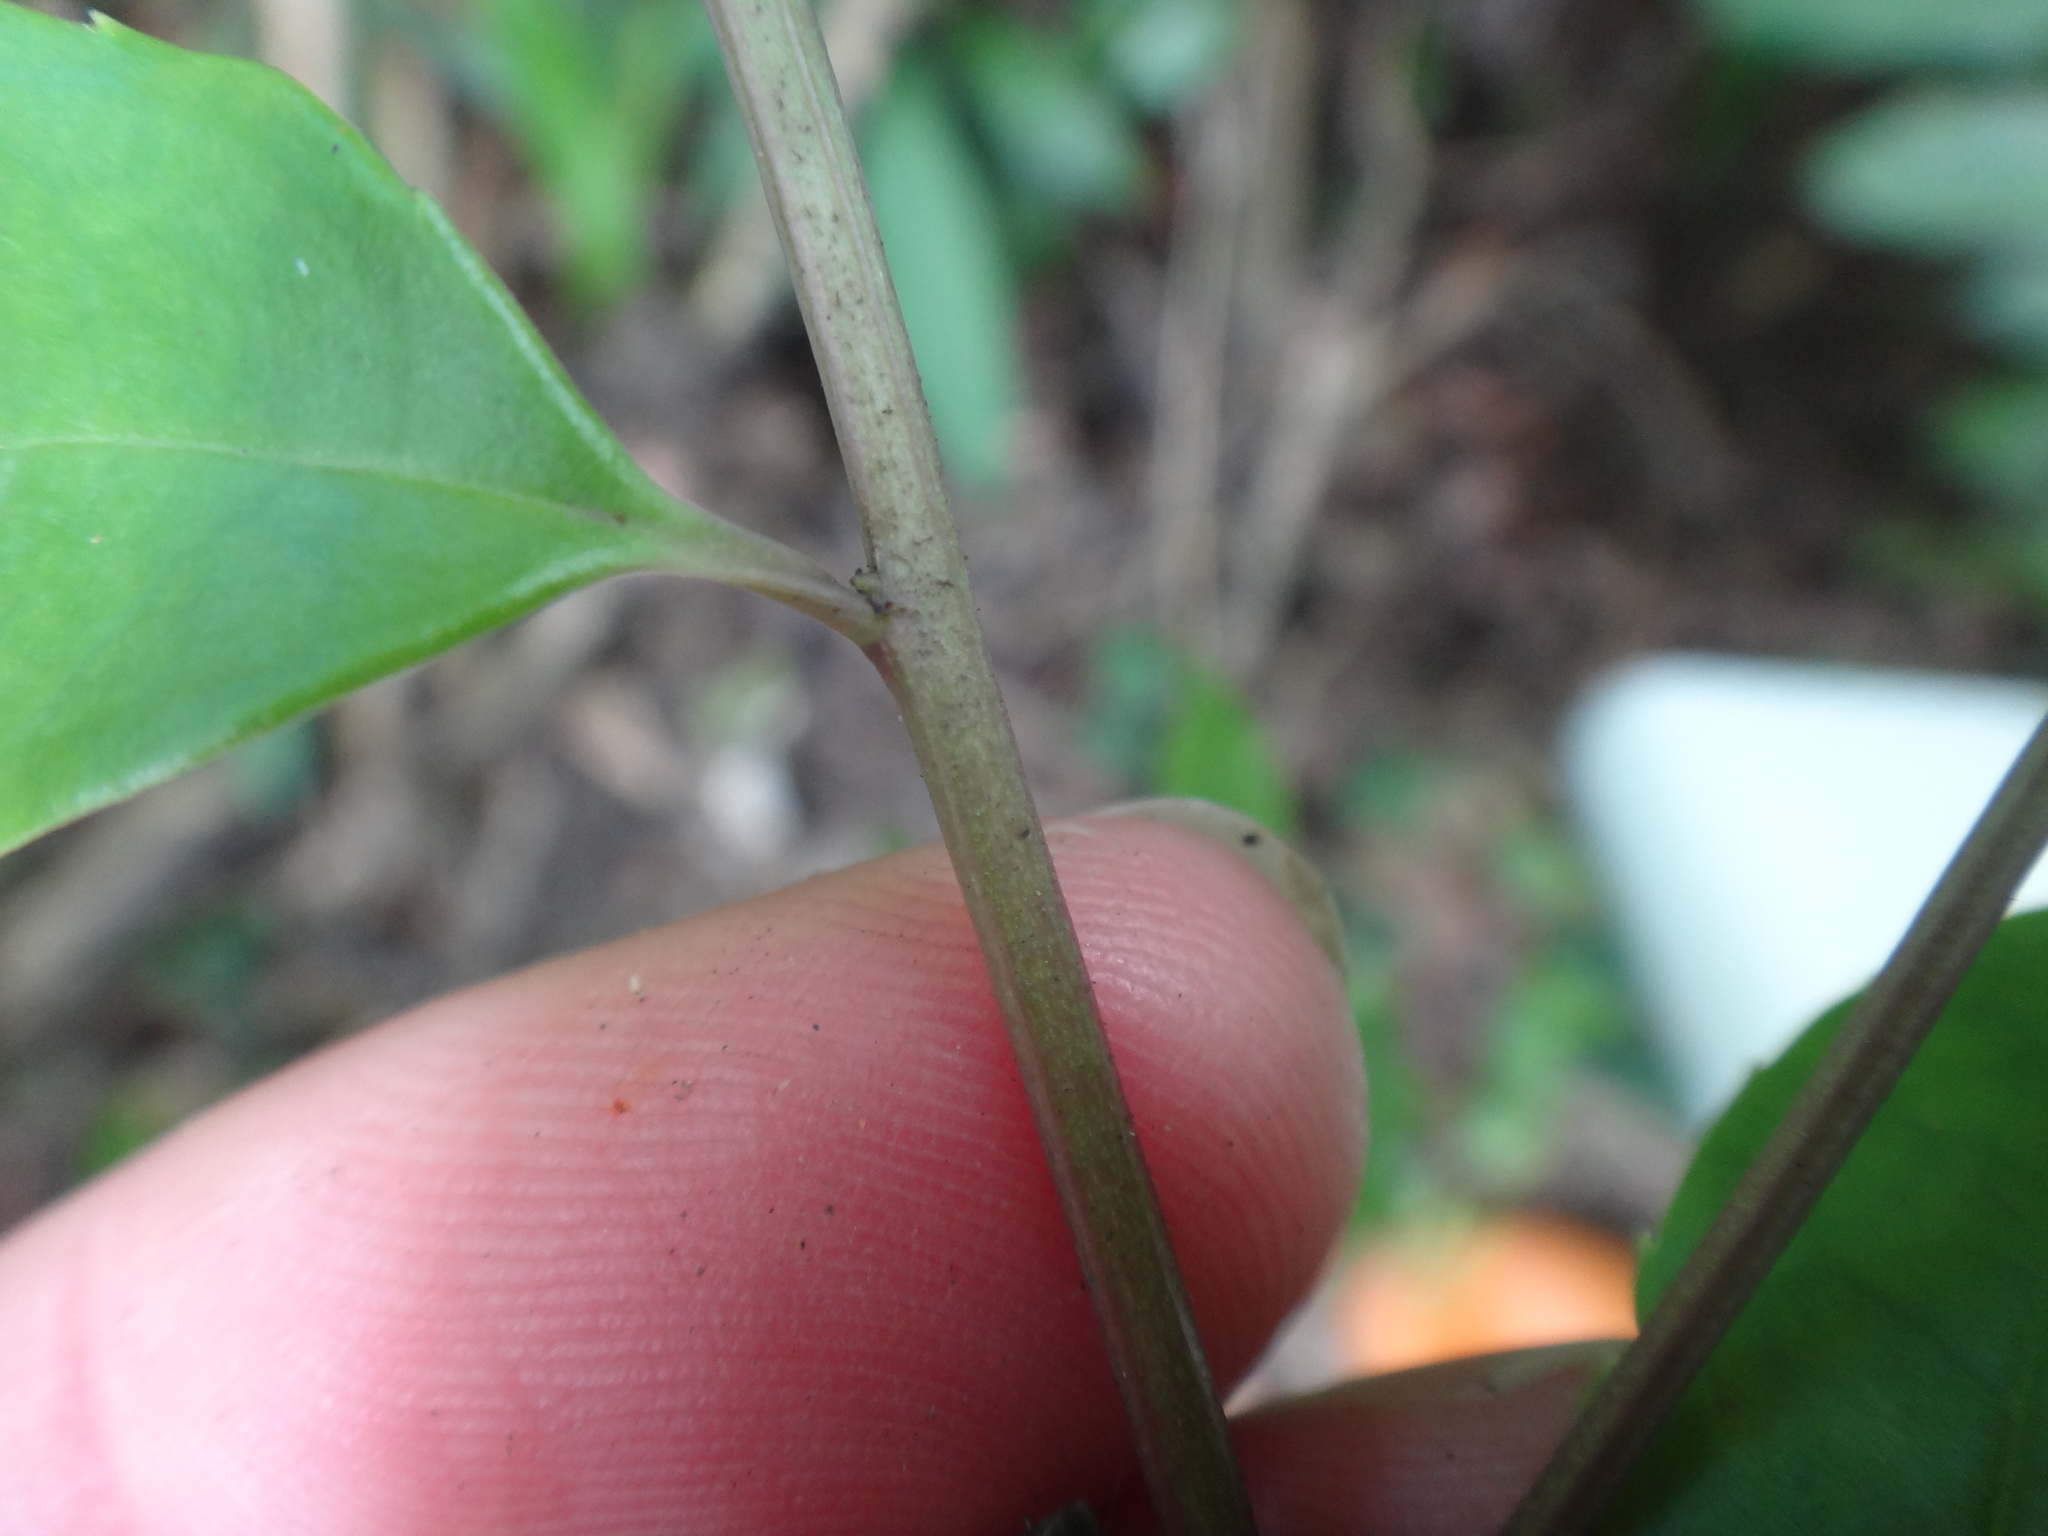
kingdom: Plantae
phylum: Tracheophyta
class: Magnoliopsida
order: Aquifoliales
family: Aquifoliaceae
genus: Ilex
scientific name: Ilex rotunda
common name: Kurogane holly
